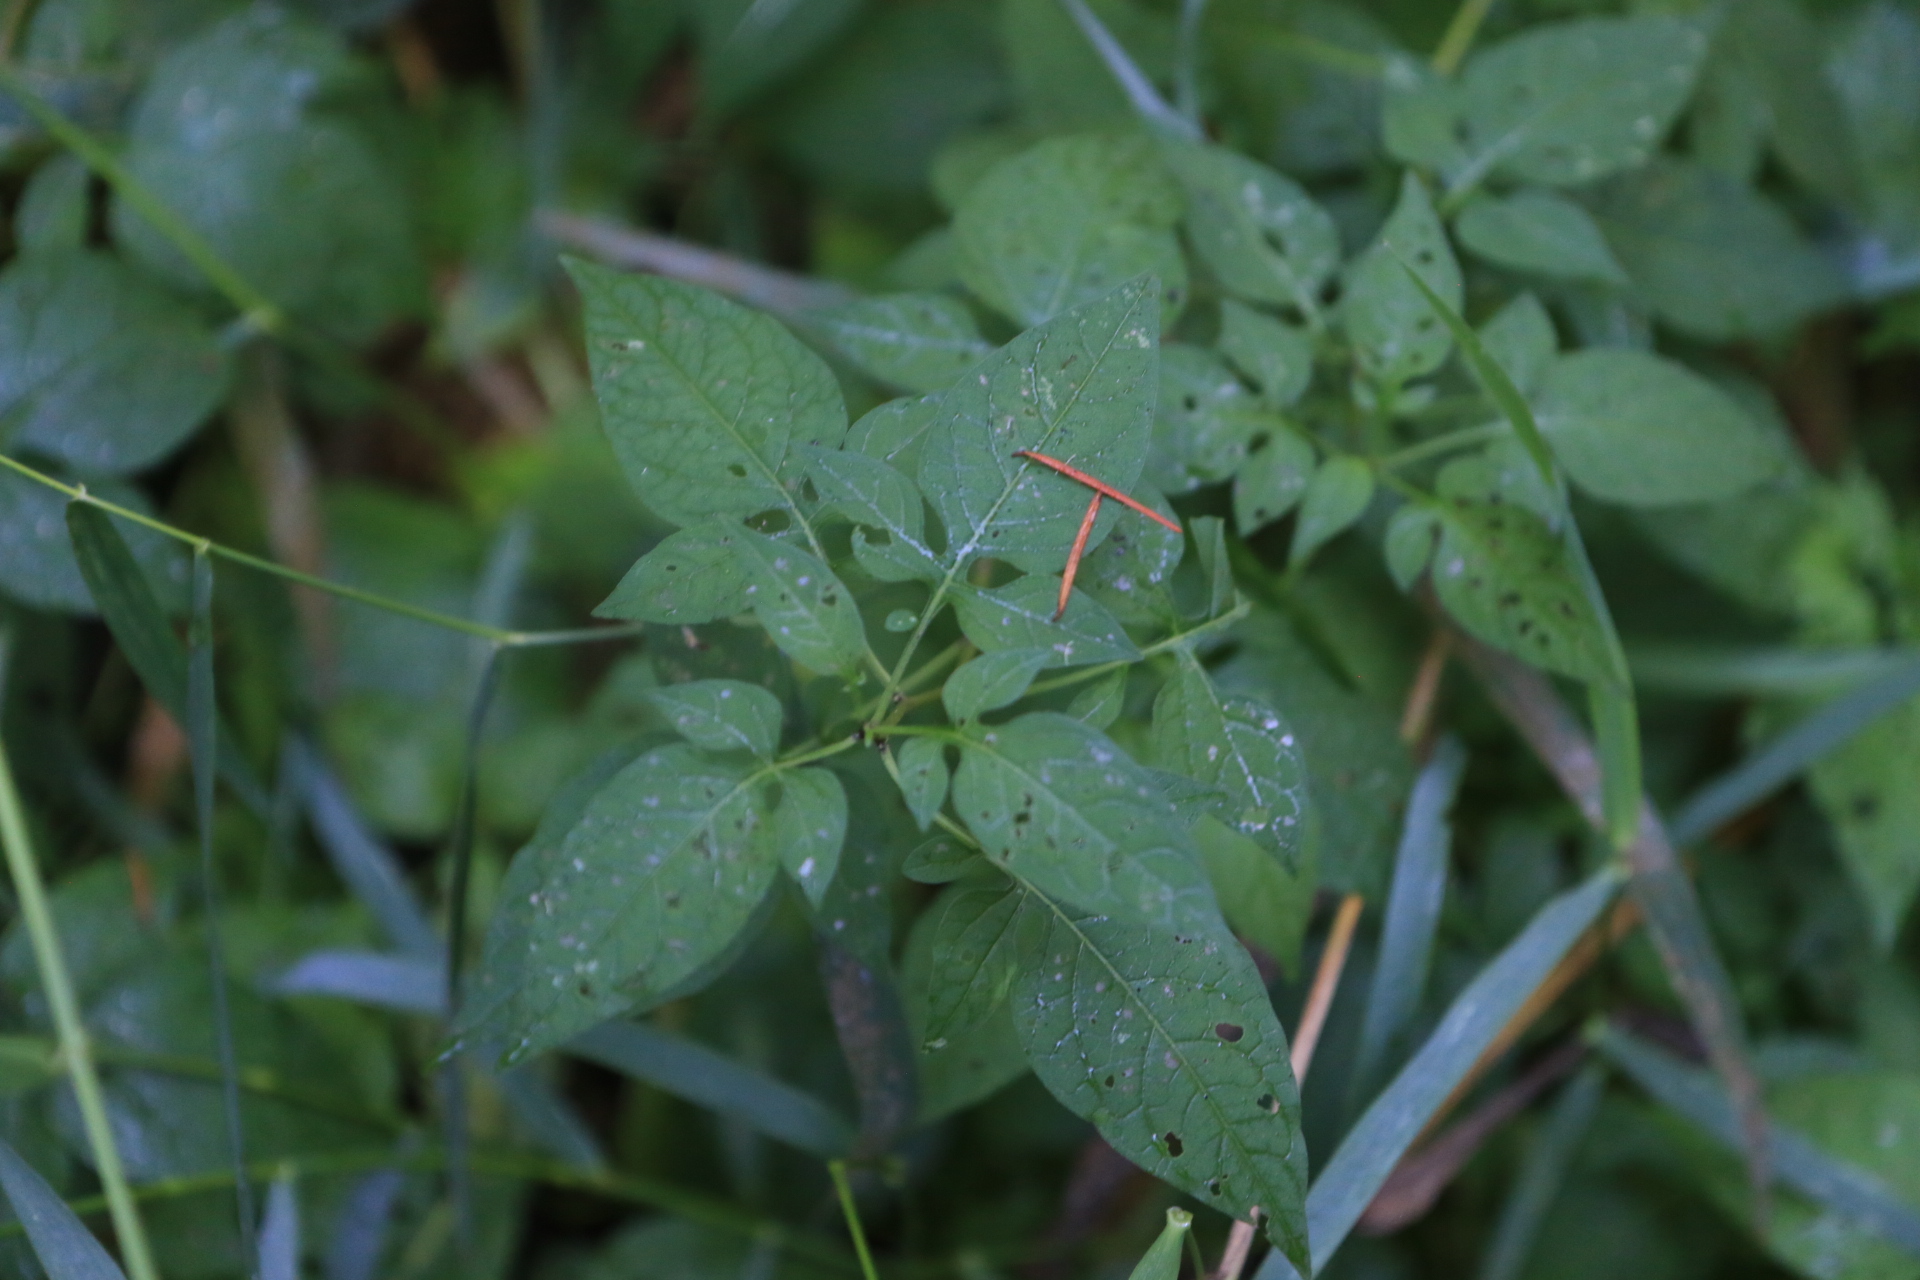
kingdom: Plantae
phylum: Tracheophyta
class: Magnoliopsida
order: Solanales
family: Solanaceae
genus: Solanum
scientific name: Solanum dulcamara
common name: Climbing nightshade
